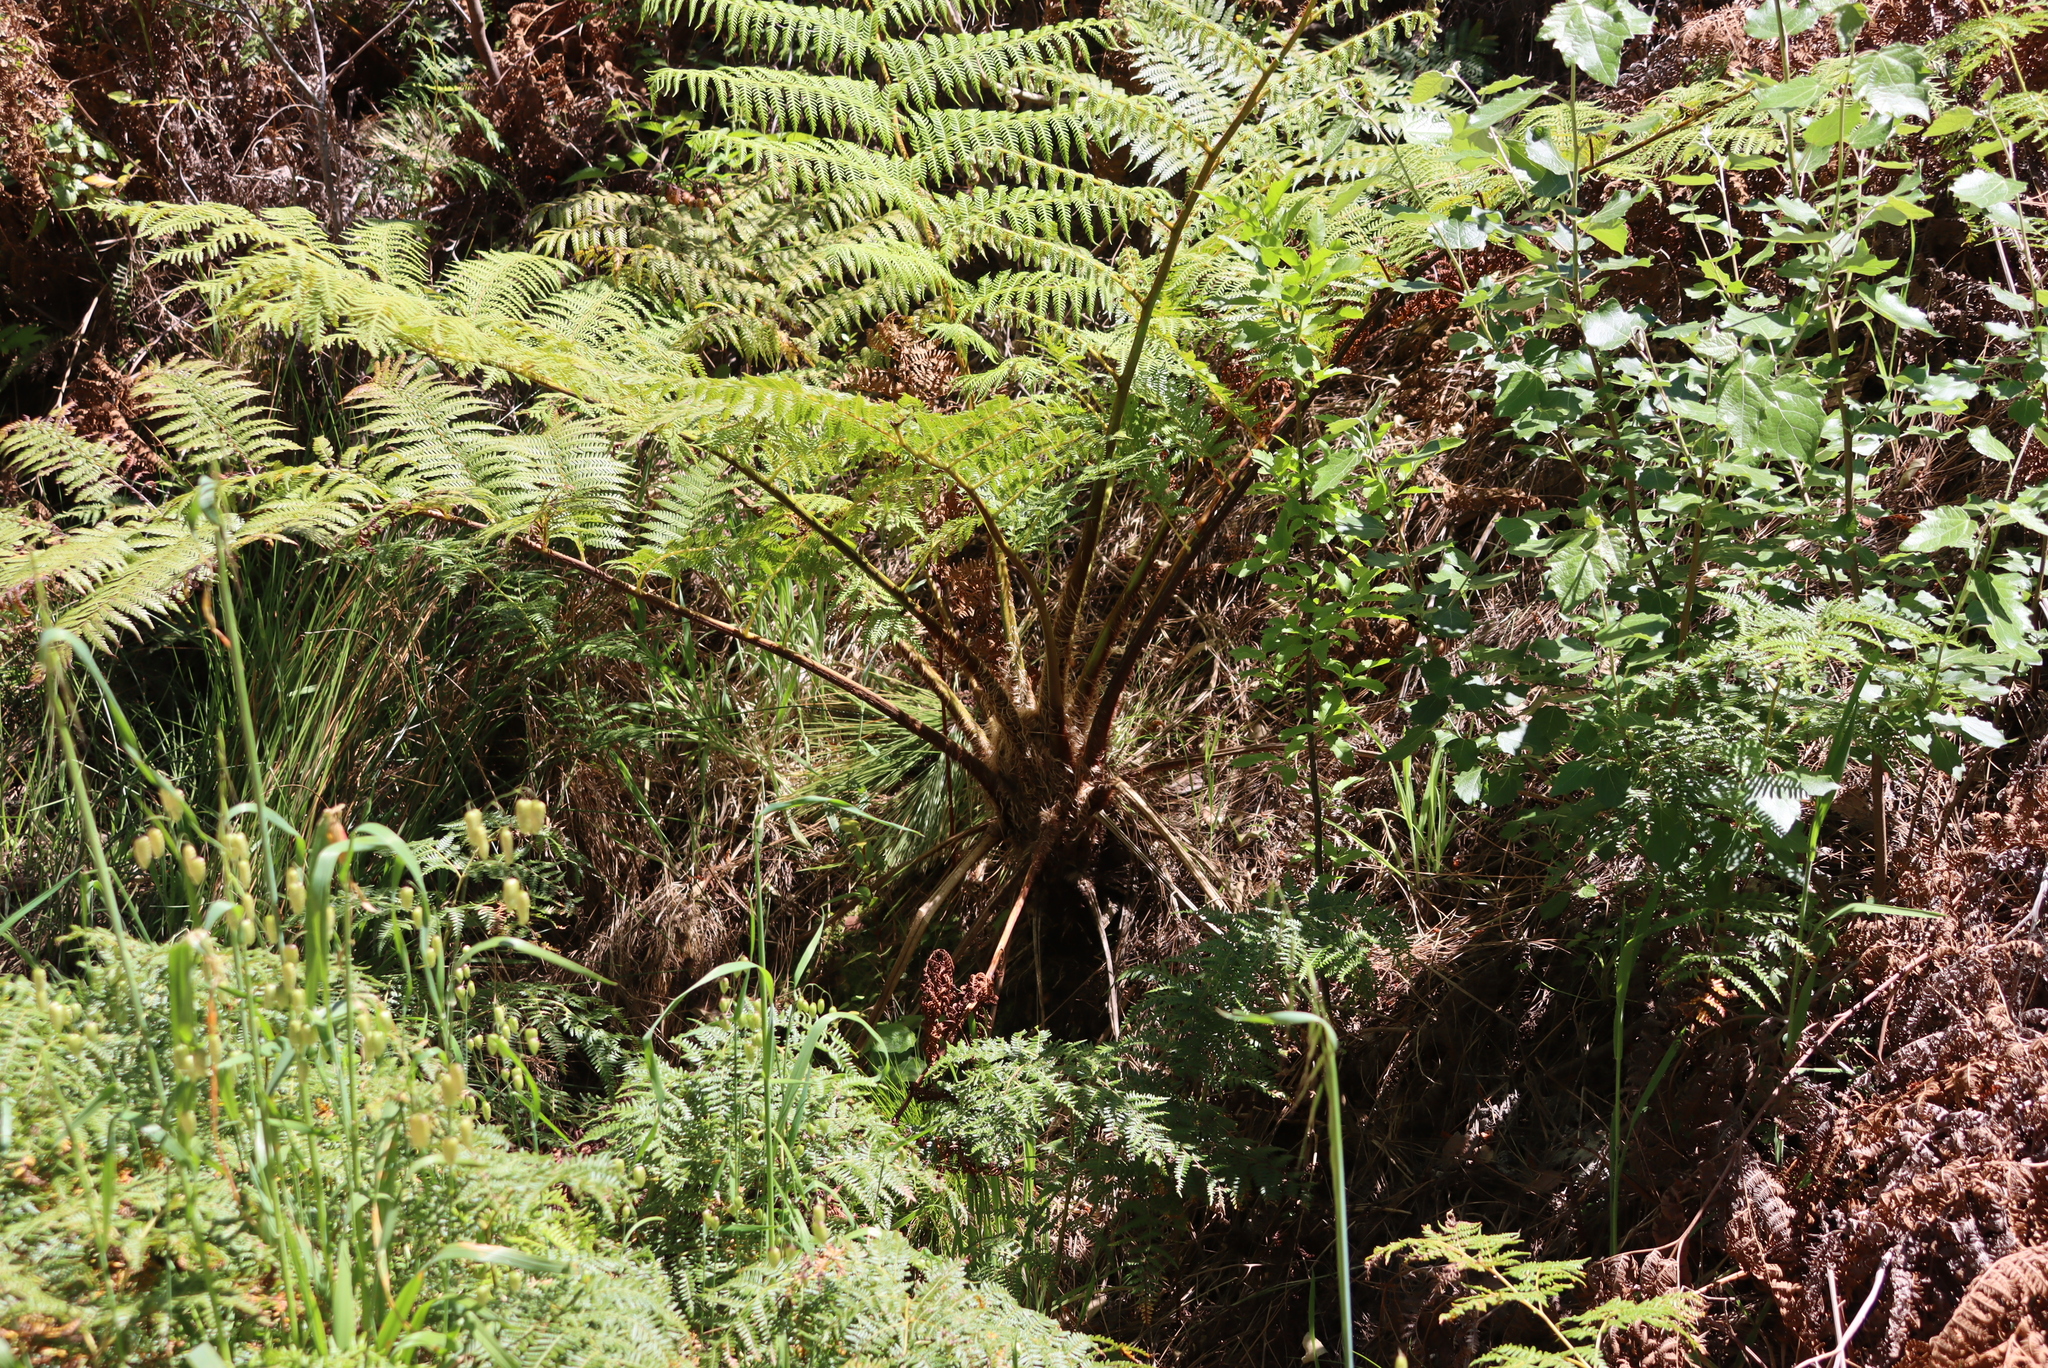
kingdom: Plantae
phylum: Tracheophyta
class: Polypodiopsida
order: Cyatheales
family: Cyatheaceae
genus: Sphaeropteris
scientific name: Sphaeropteris cooperi
